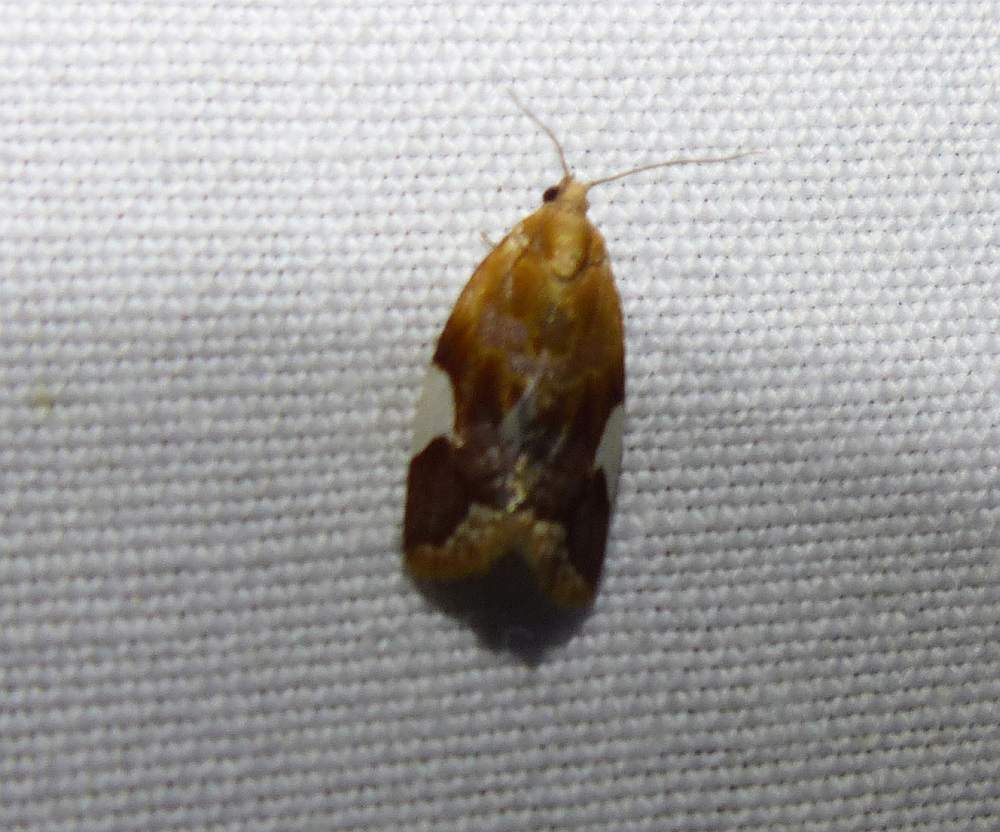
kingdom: Animalia
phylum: Arthropoda
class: Insecta
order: Lepidoptera
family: Tortricidae
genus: Clepsis
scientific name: Clepsis persicana
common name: White triangle tortrix
